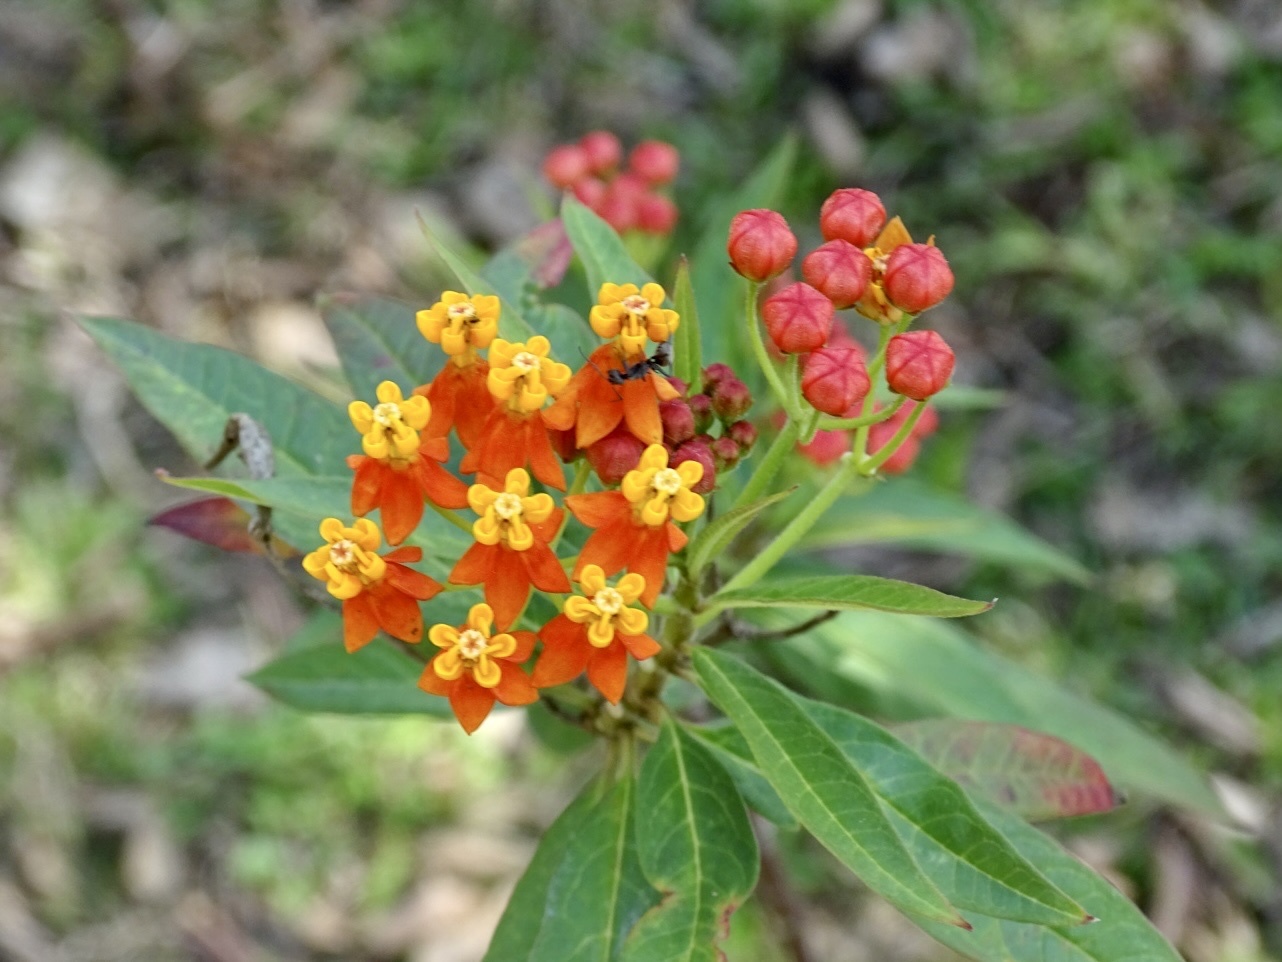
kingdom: Plantae
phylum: Tracheophyta
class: Magnoliopsida
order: Gentianales
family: Apocynaceae
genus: Asclepias
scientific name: Asclepias curassavica
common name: Bloodflower
